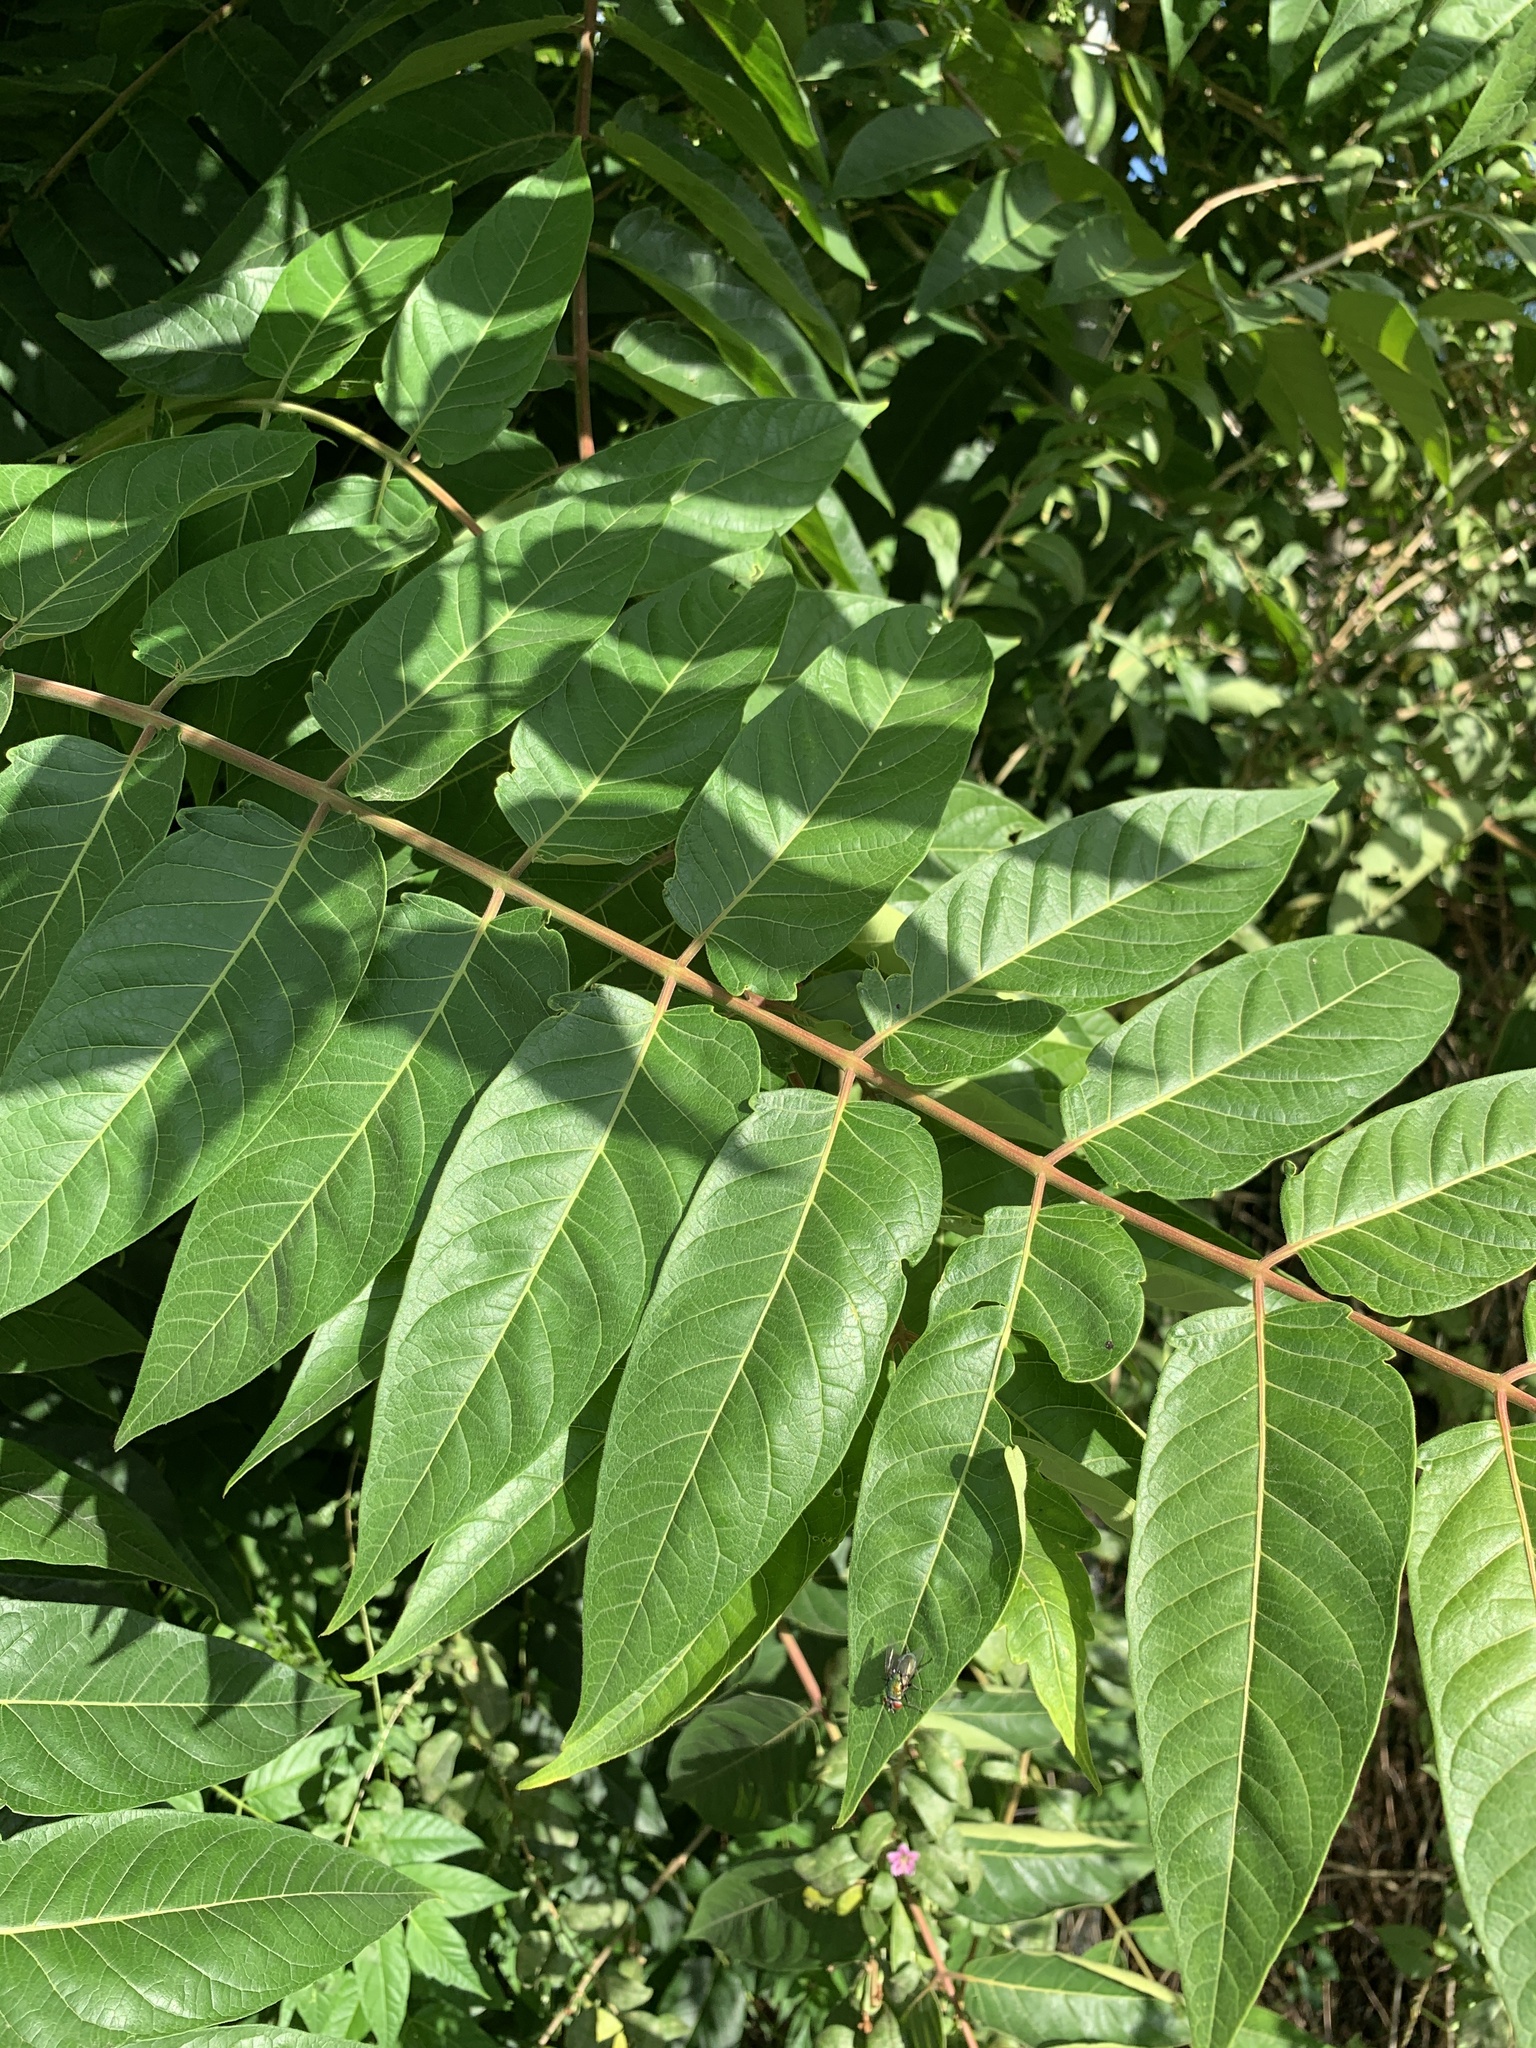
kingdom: Plantae
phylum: Tracheophyta
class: Magnoliopsida
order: Sapindales
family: Simaroubaceae
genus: Ailanthus
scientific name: Ailanthus altissima
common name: Tree-of-heaven
